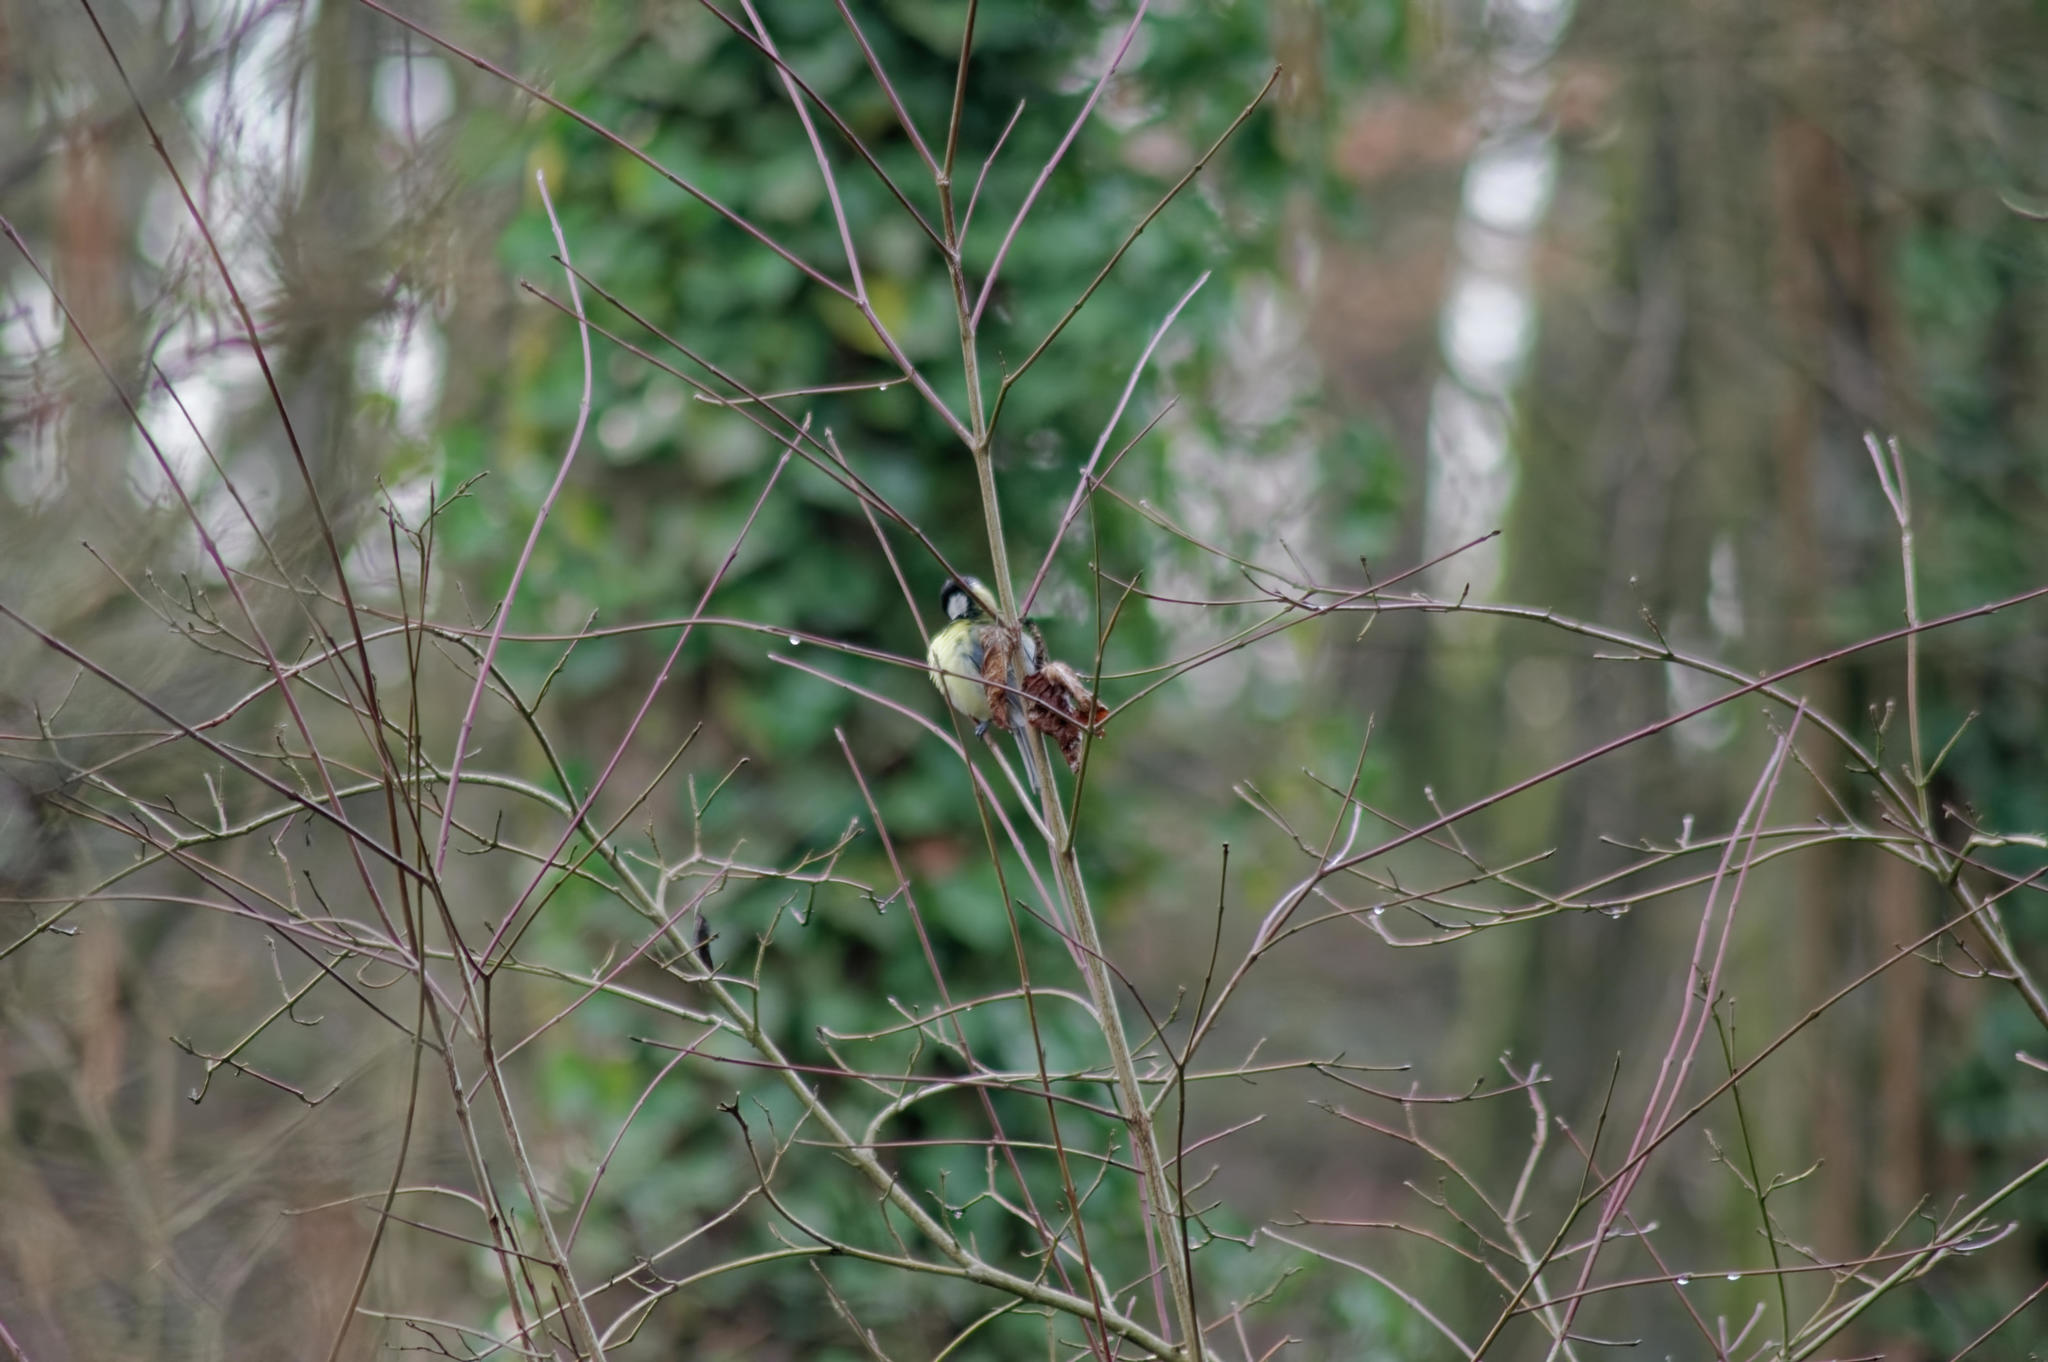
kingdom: Animalia
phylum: Chordata
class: Aves
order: Passeriformes
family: Paridae
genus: Parus
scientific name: Parus major
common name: Great tit
